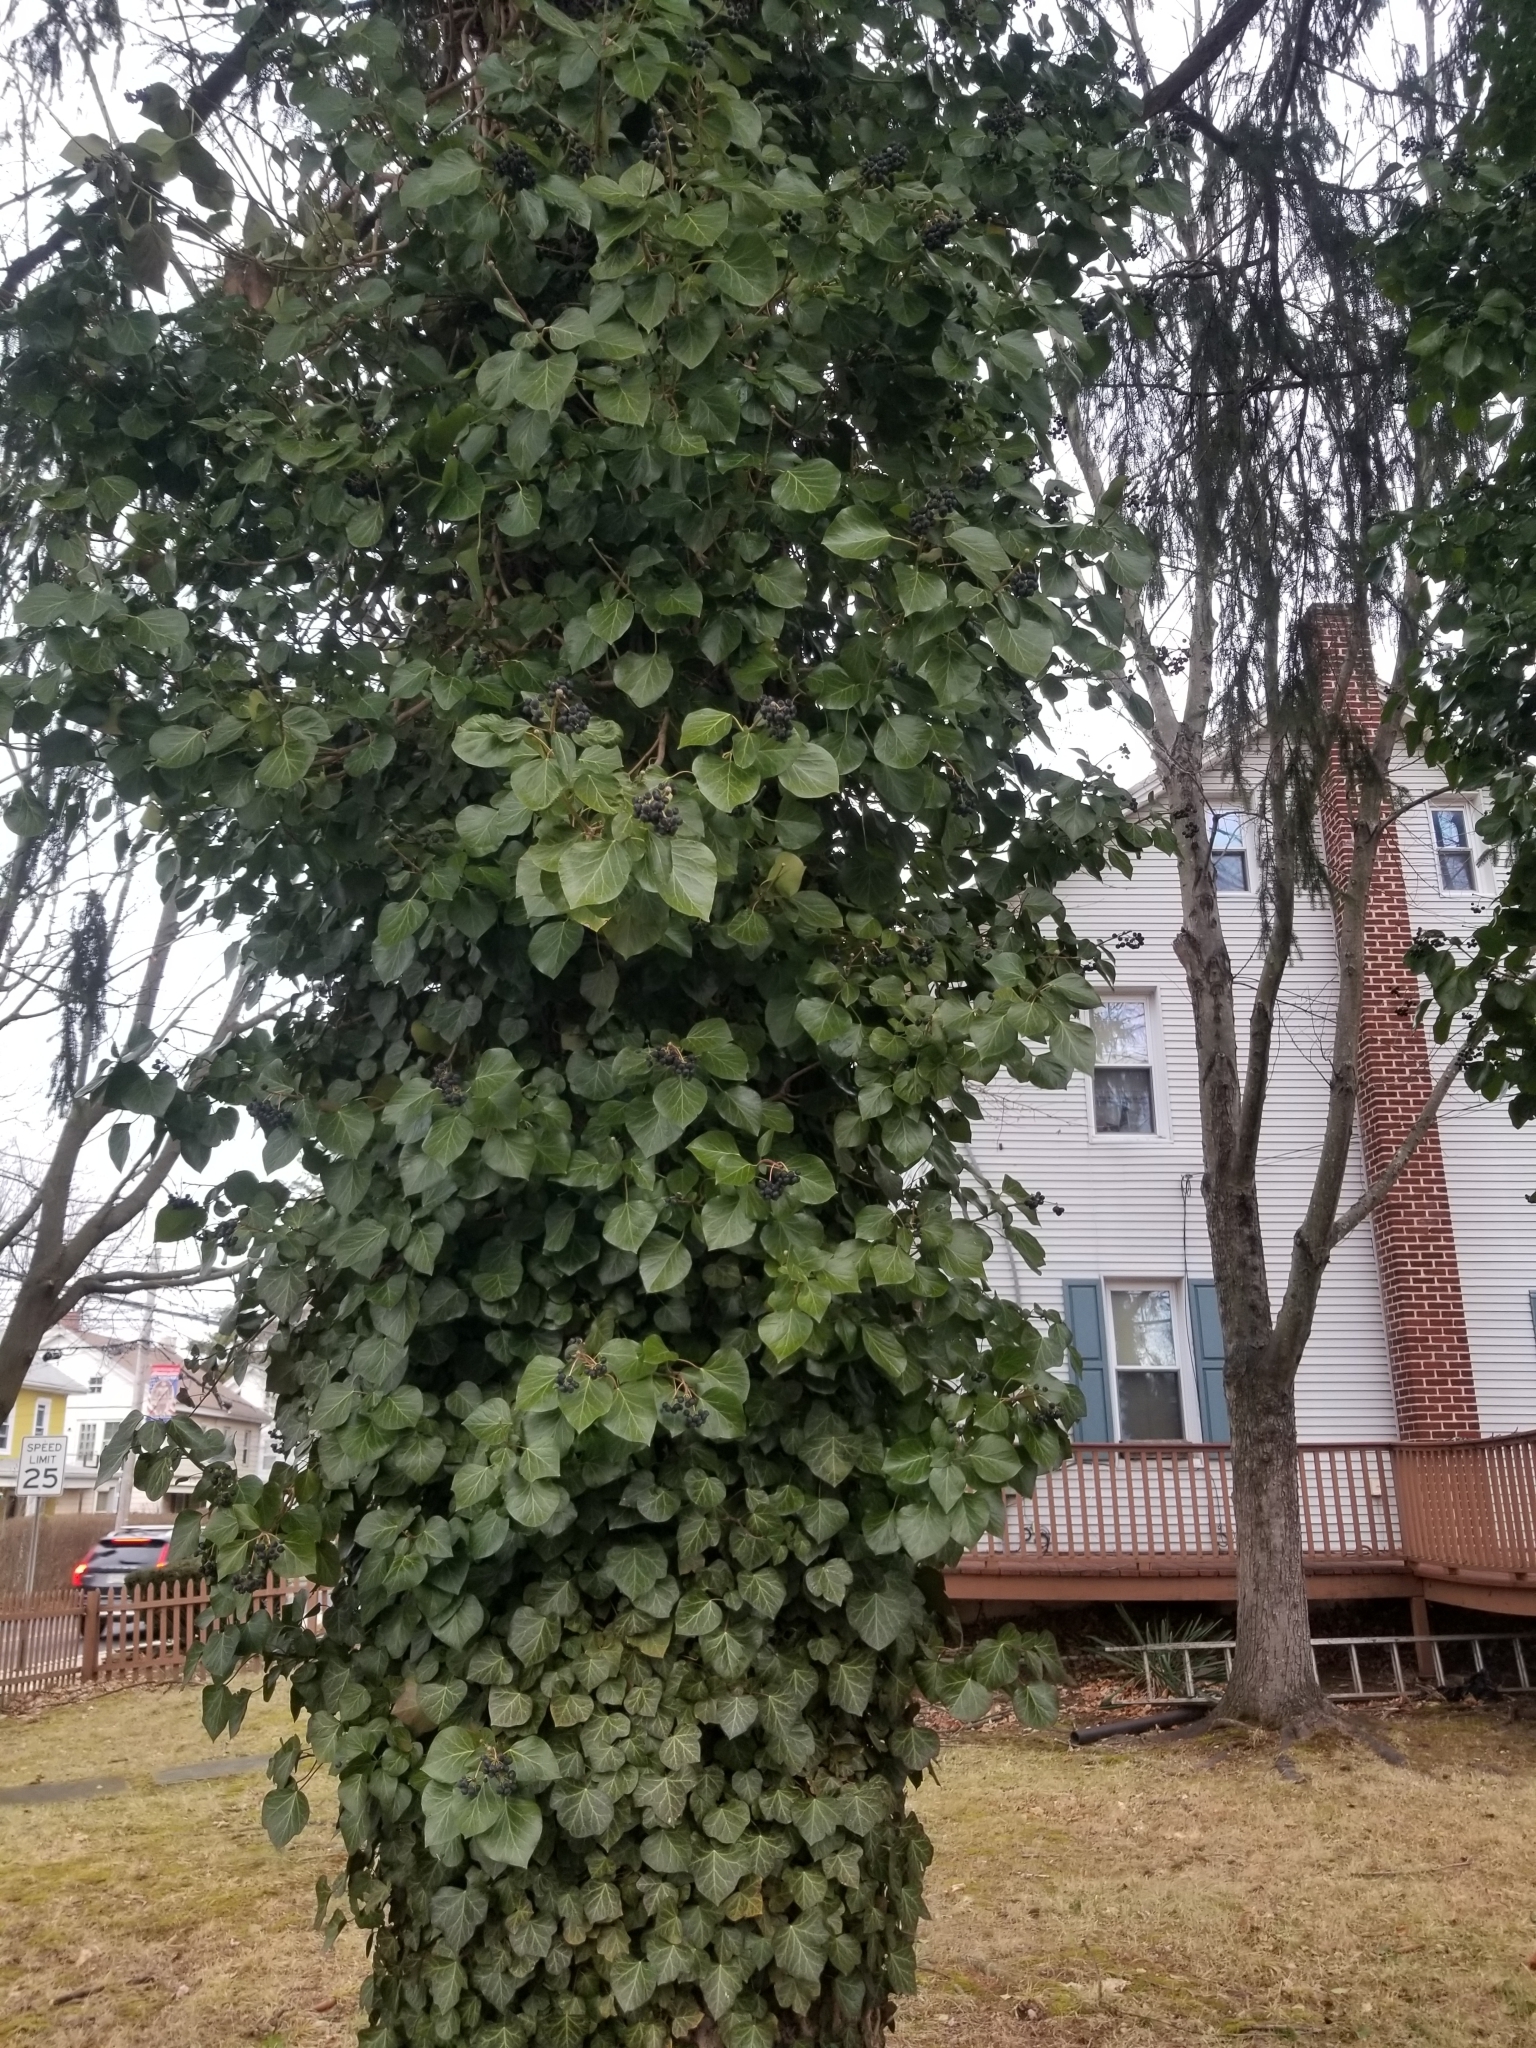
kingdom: Plantae
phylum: Tracheophyta
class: Magnoliopsida
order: Apiales
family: Araliaceae
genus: Hedera
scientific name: Hedera helix
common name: Ivy
